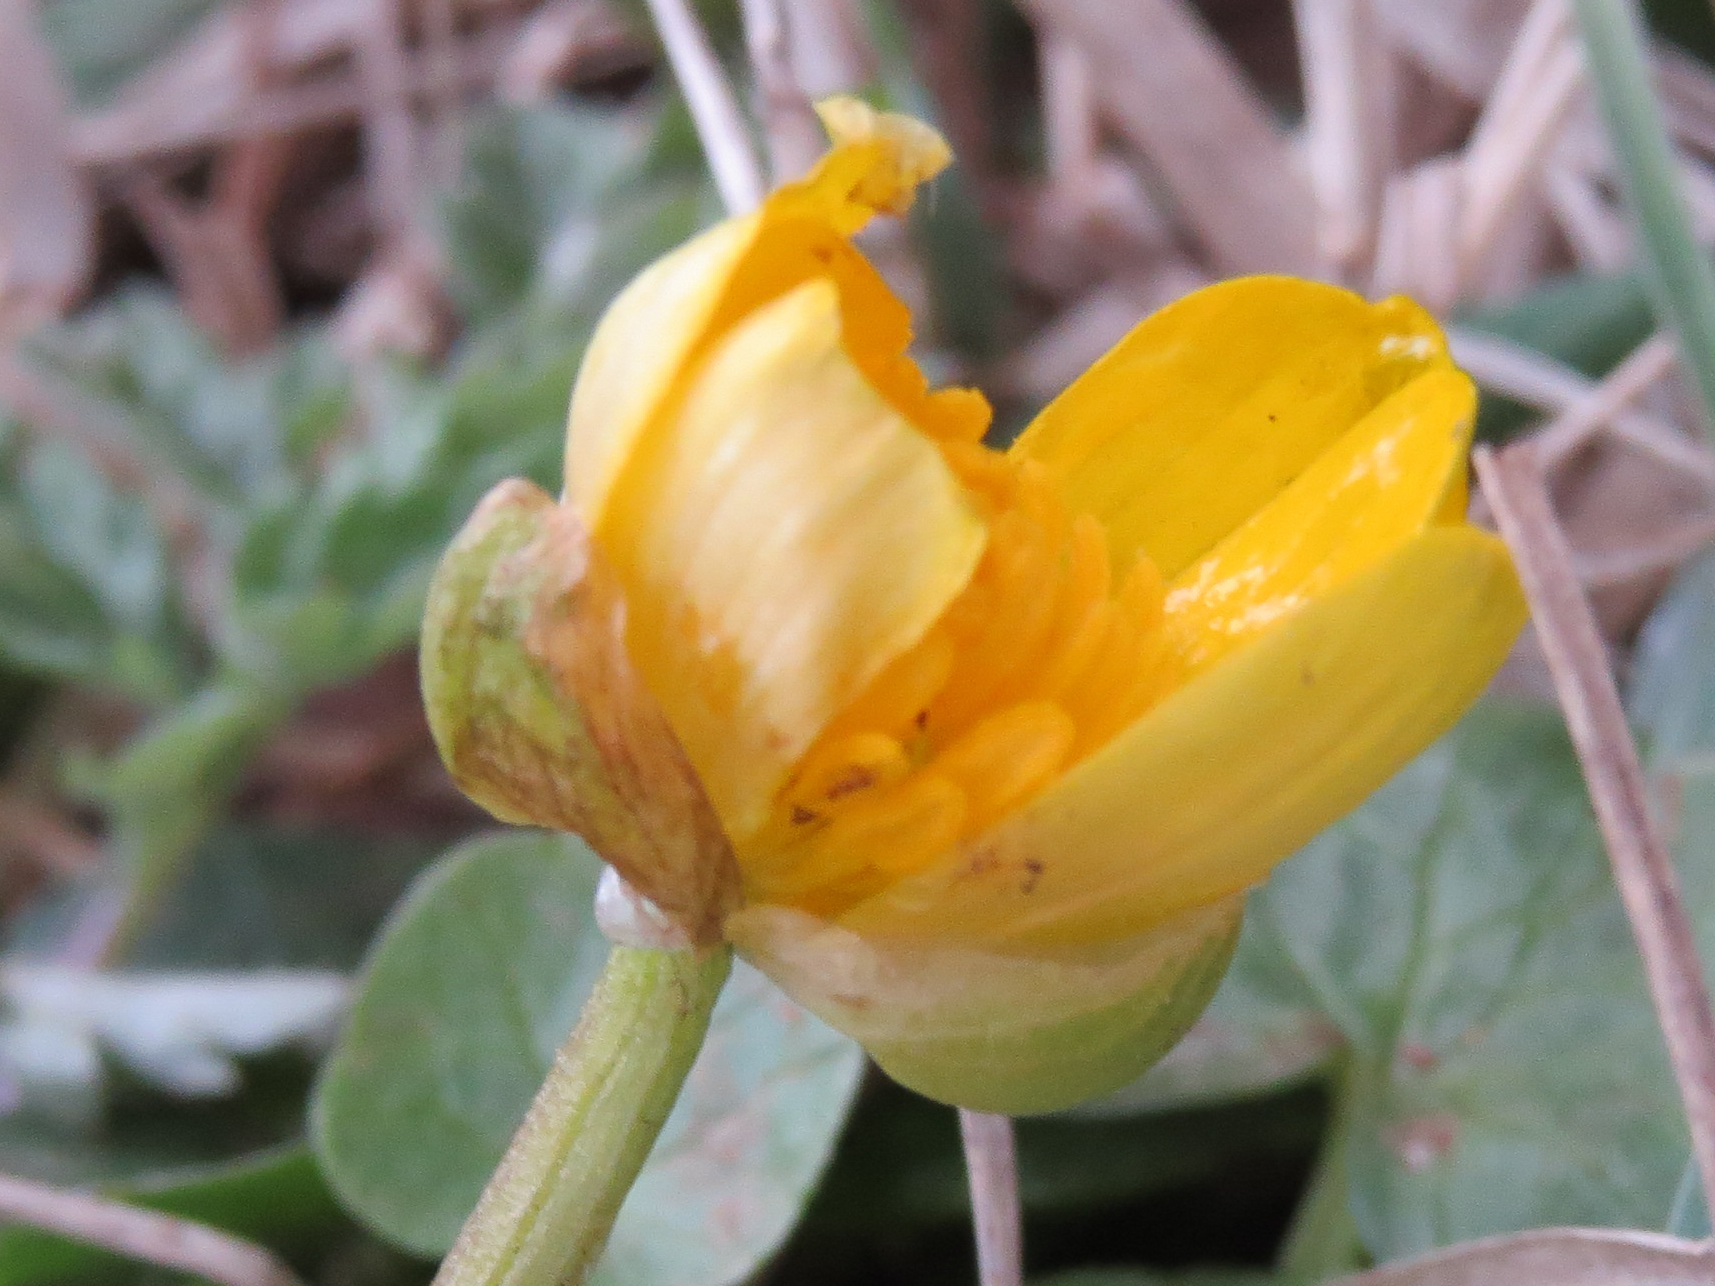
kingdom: Plantae
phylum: Tracheophyta
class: Magnoliopsida
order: Ranunculales
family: Ranunculaceae
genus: Ficaria
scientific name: Ficaria verna
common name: Lesser celandine
